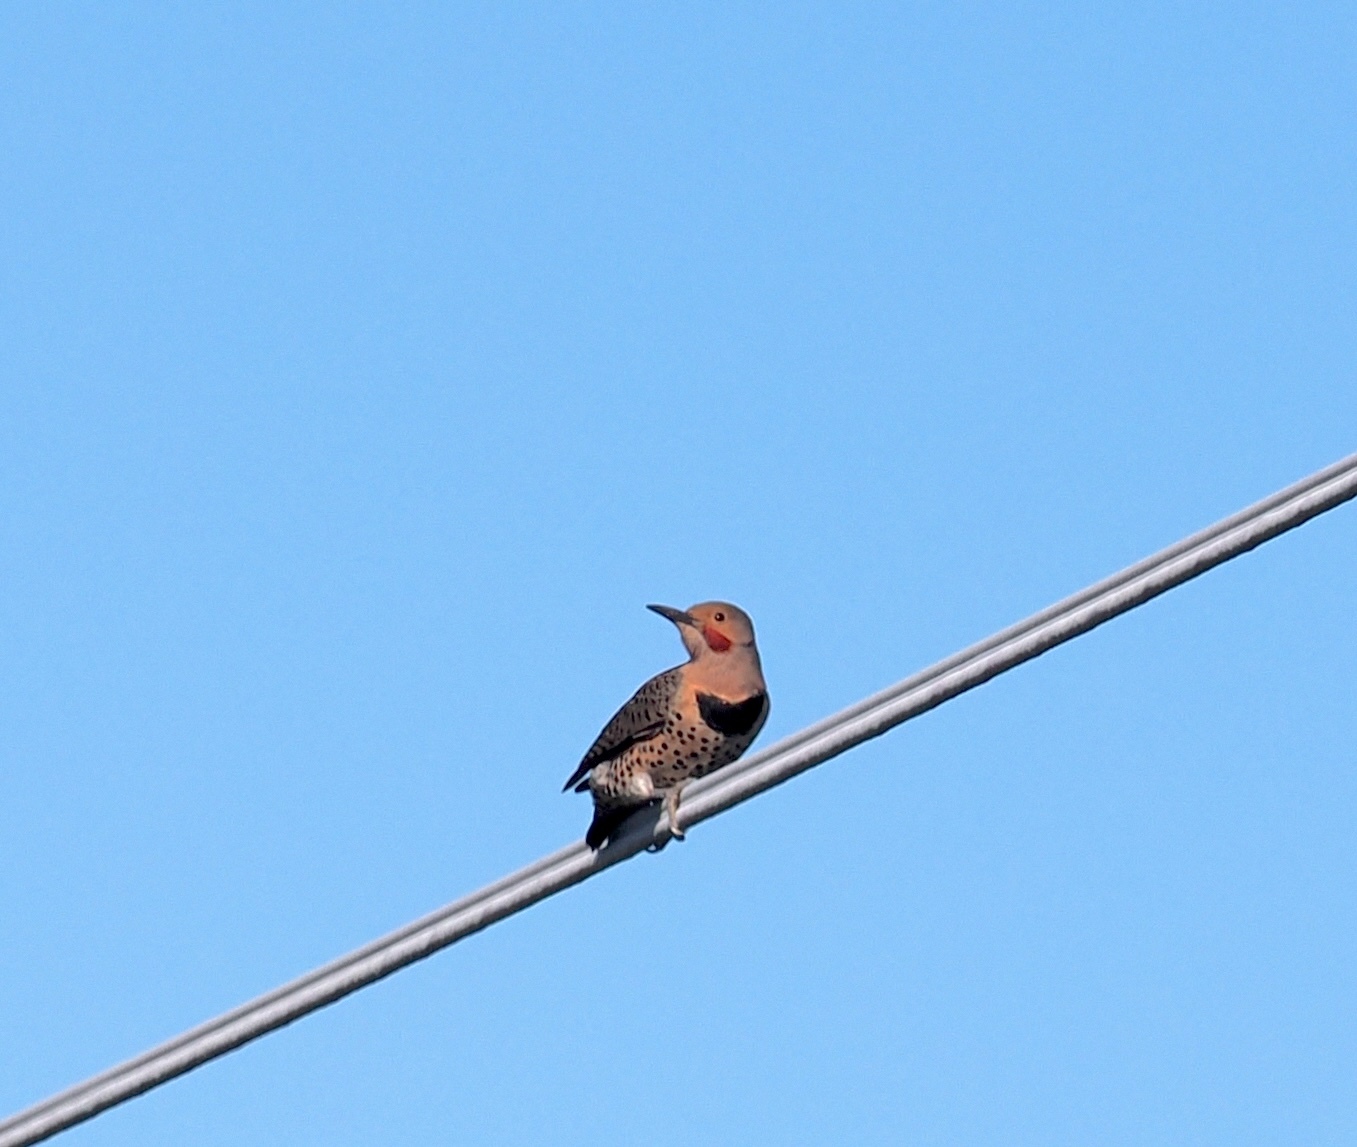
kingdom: Animalia
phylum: Chordata
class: Aves
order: Piciformes
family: Picidae
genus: Colaptes
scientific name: Colaptes auratus
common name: Northern flicker
